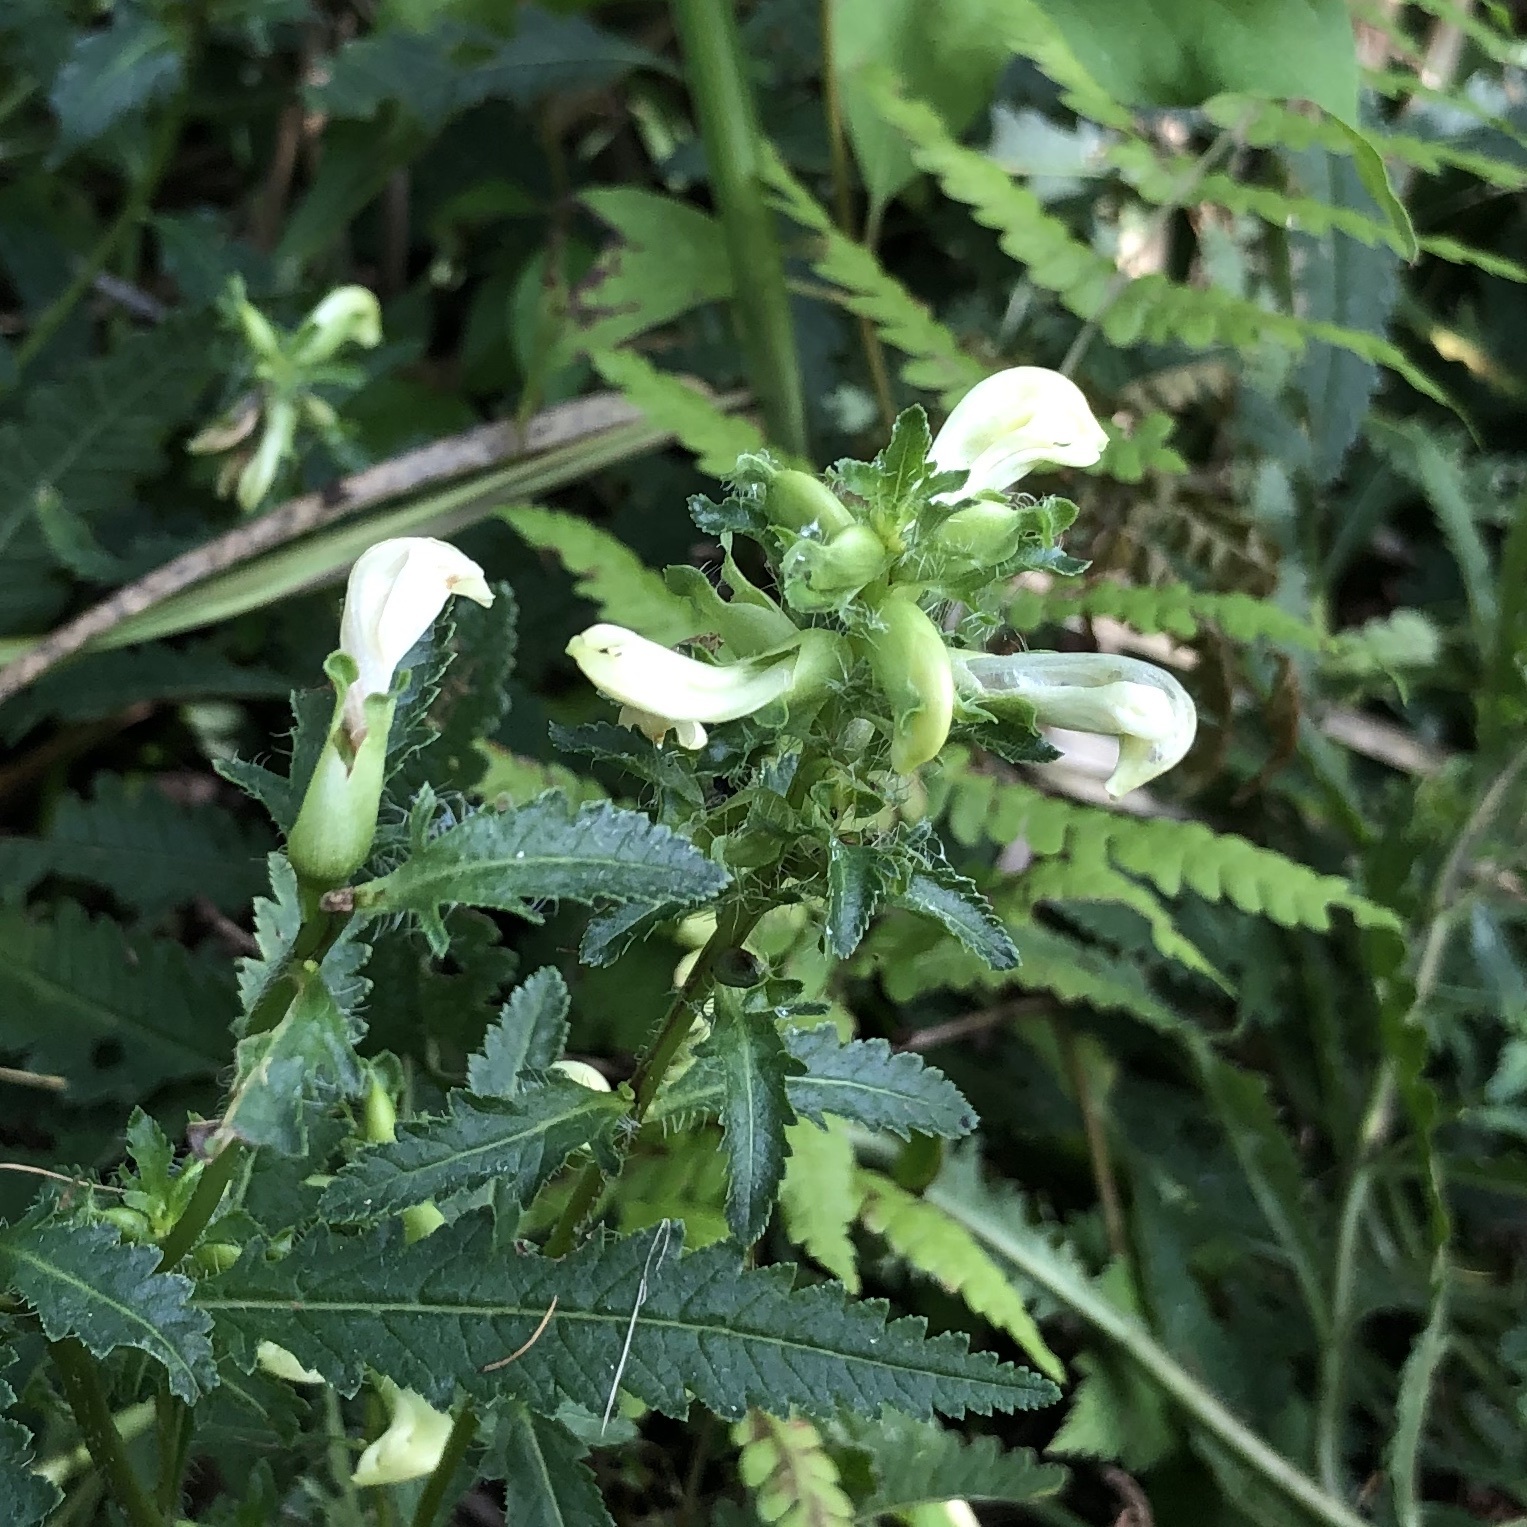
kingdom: Plantae
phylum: Tracheophyta
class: Magnoliopsida
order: Lamiales
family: Orobanchaceae
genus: Pedicularis
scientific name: Pedicularis lanceolata
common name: Swamp lousewort
